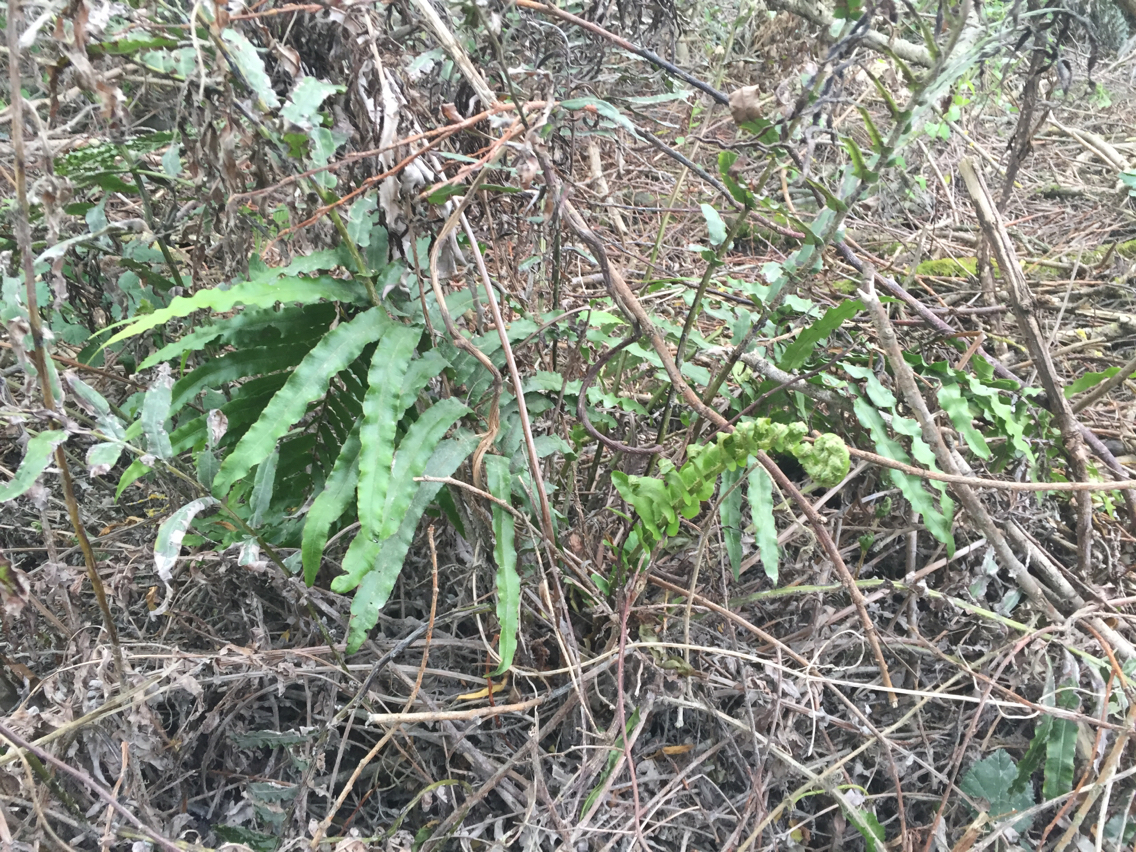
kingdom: Plantae
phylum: Tracheophyta
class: Polypodiopsida
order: Polypodiales
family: Blechnaceae
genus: Parablechnum
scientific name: Parablechnum novae-zelandiae
